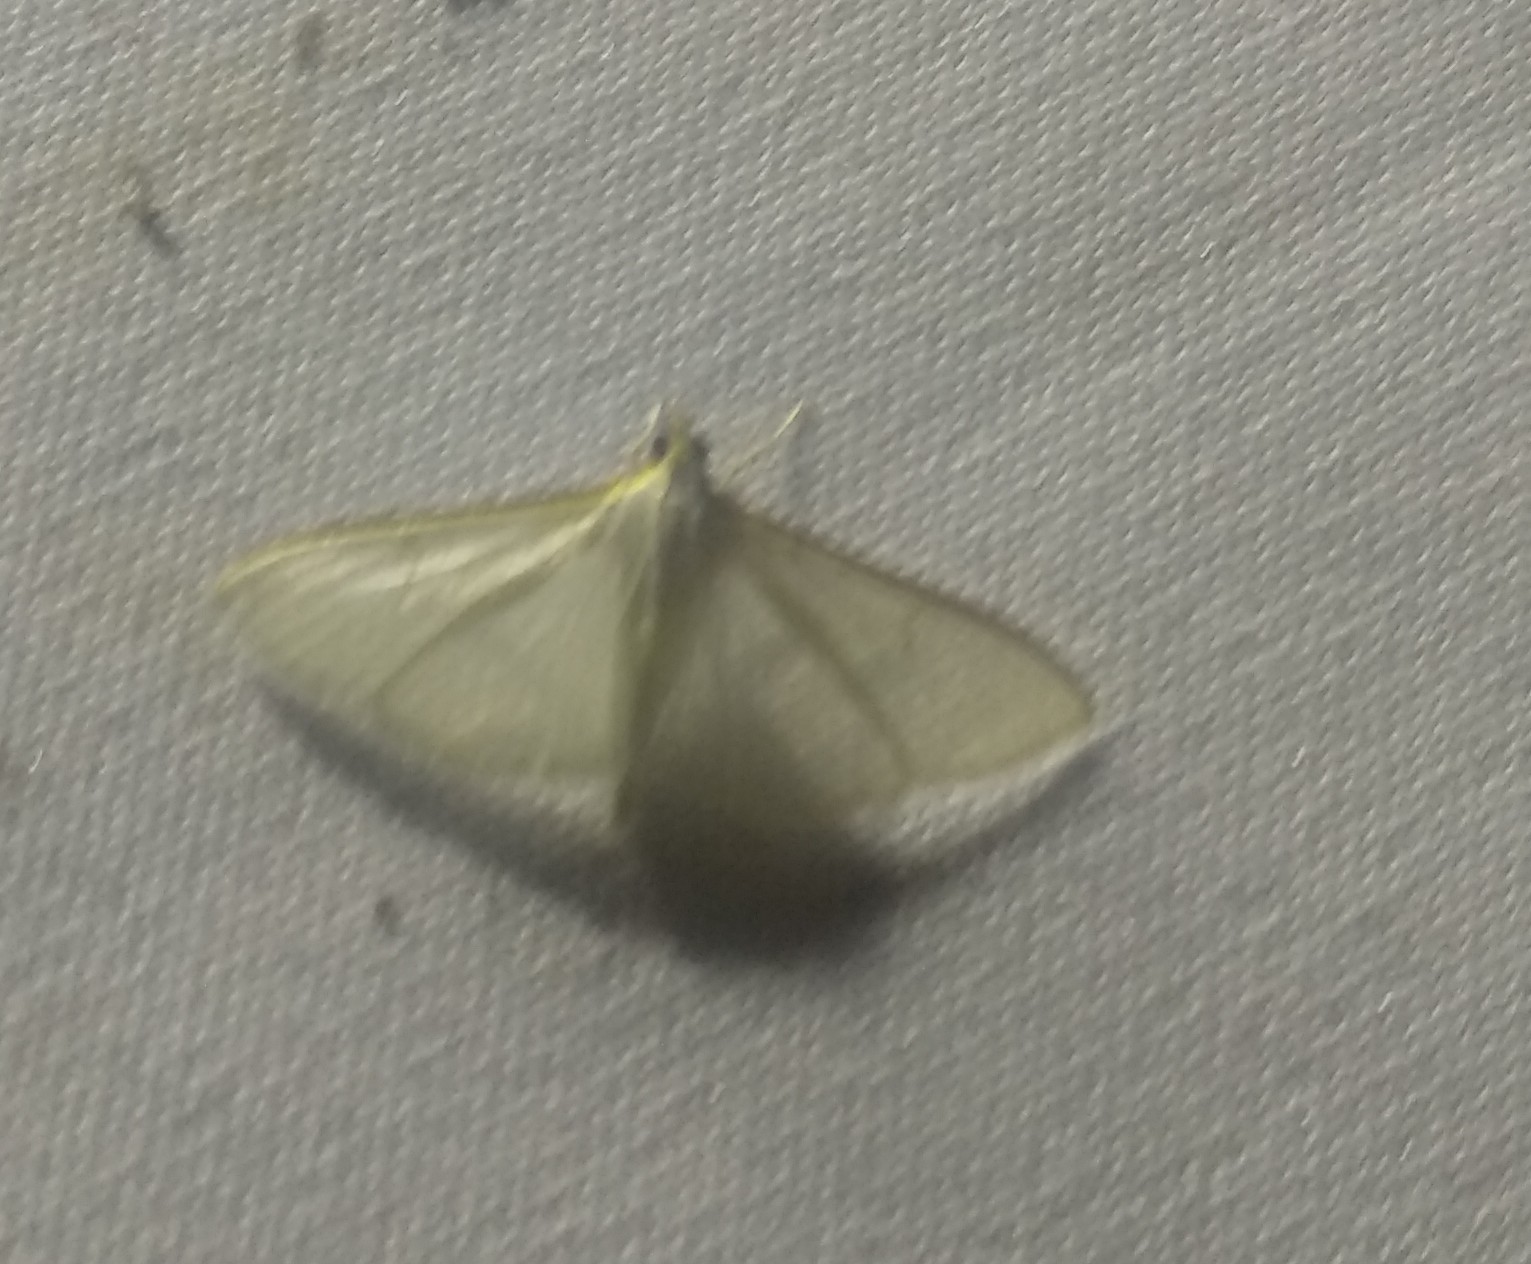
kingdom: Animalia
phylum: Arthropoda
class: Insecta
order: Lepidoptera
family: Crambidae
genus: Palpita
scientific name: Palpita vitrealis
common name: Olive-tree pearl
